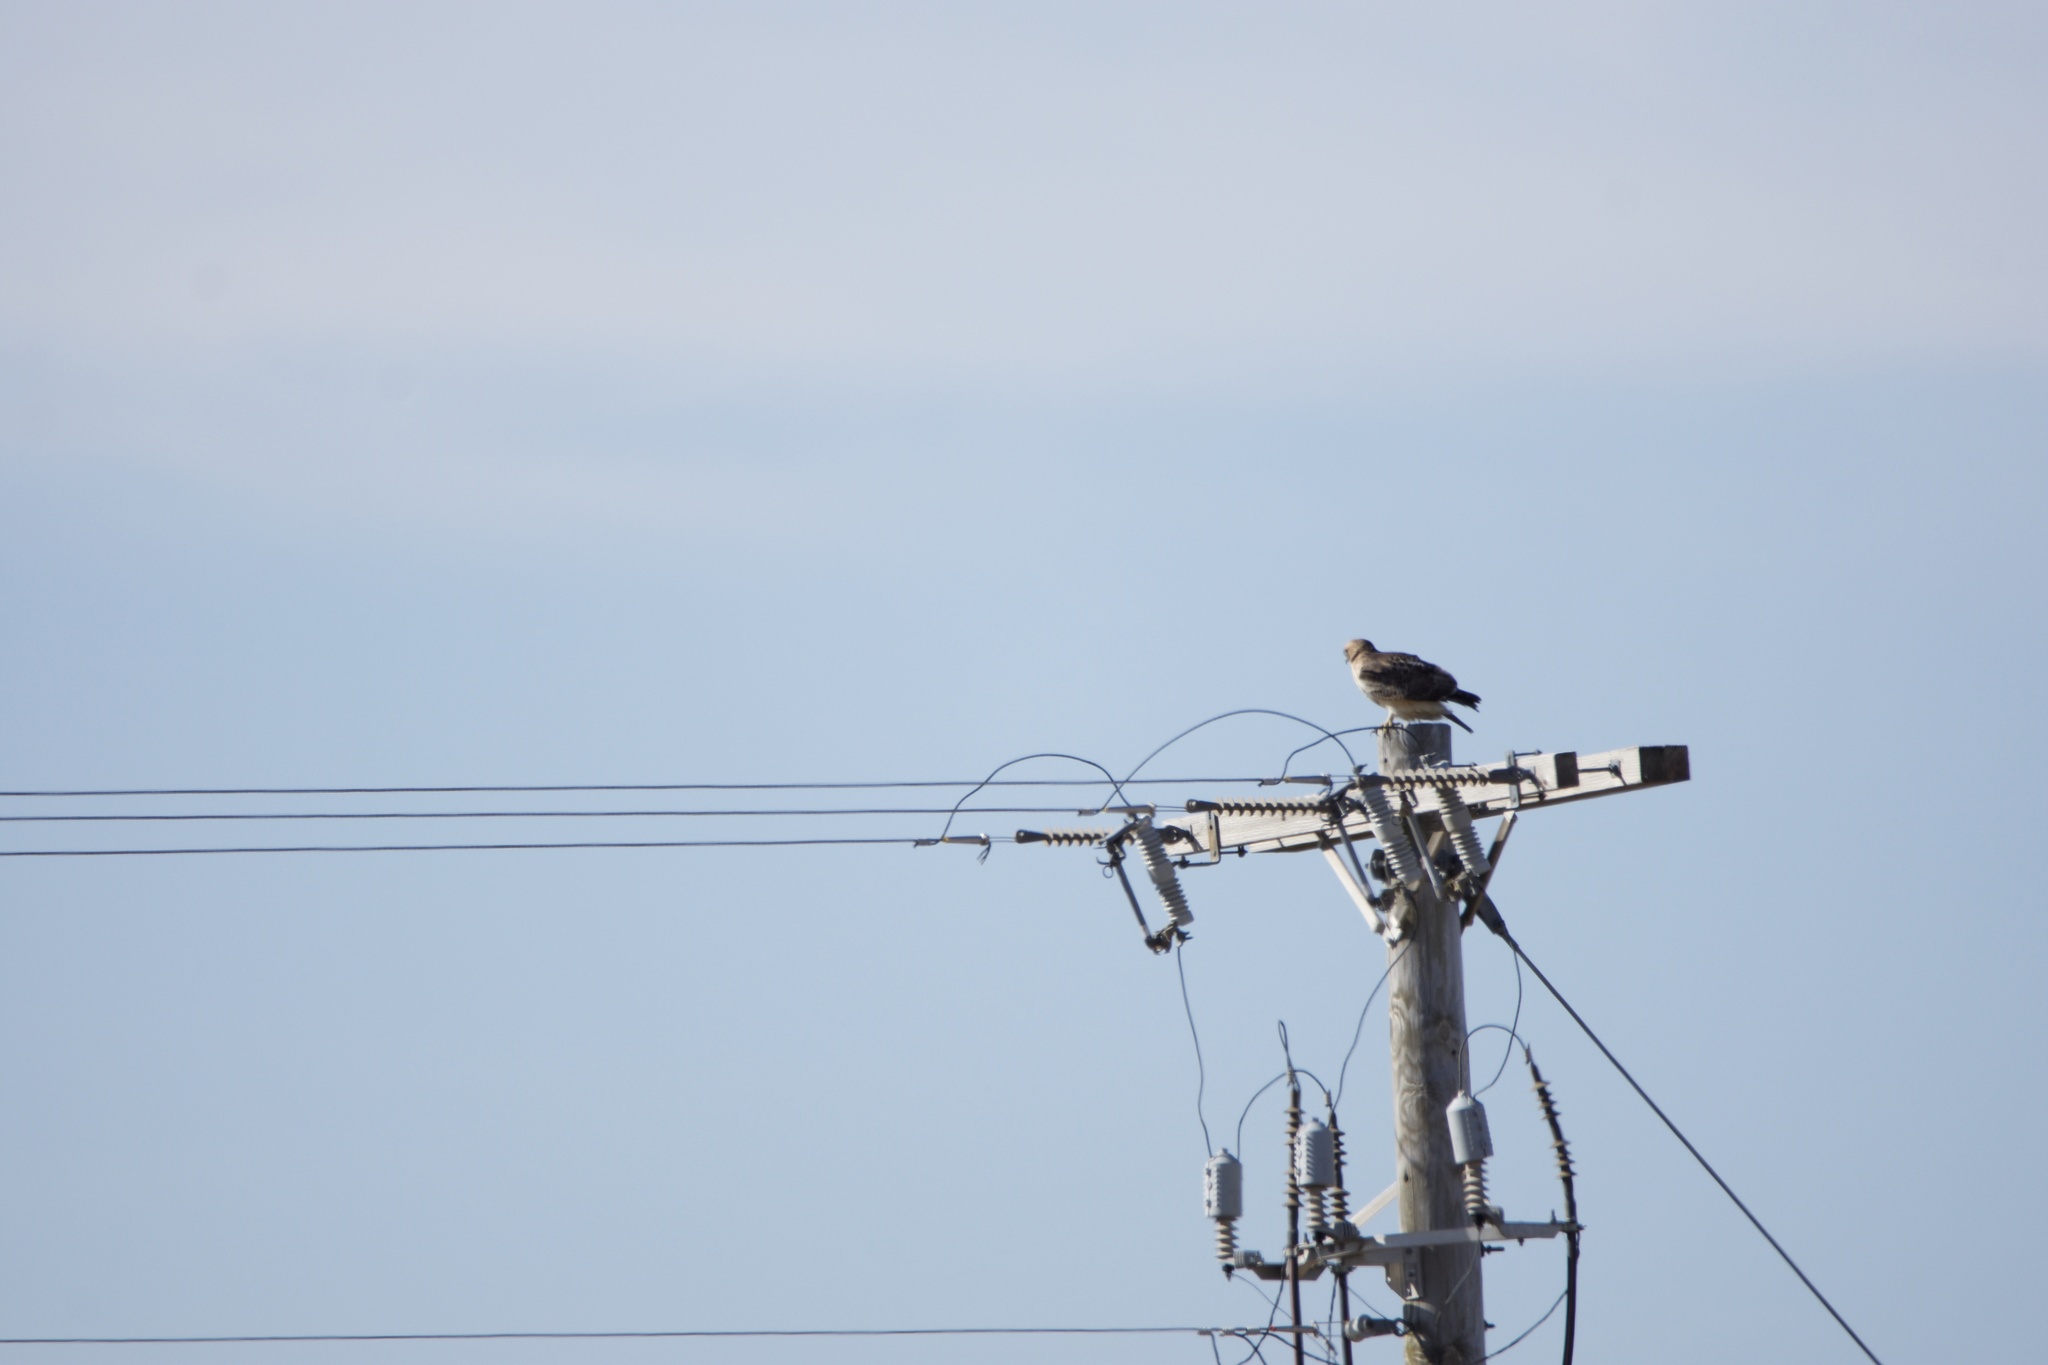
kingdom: Animalia
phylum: Chordata
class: Aves
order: Accipitriformes
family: Accipitridae
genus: Buteo
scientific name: Buteo jamaicensis
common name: Red-tailed hawk
